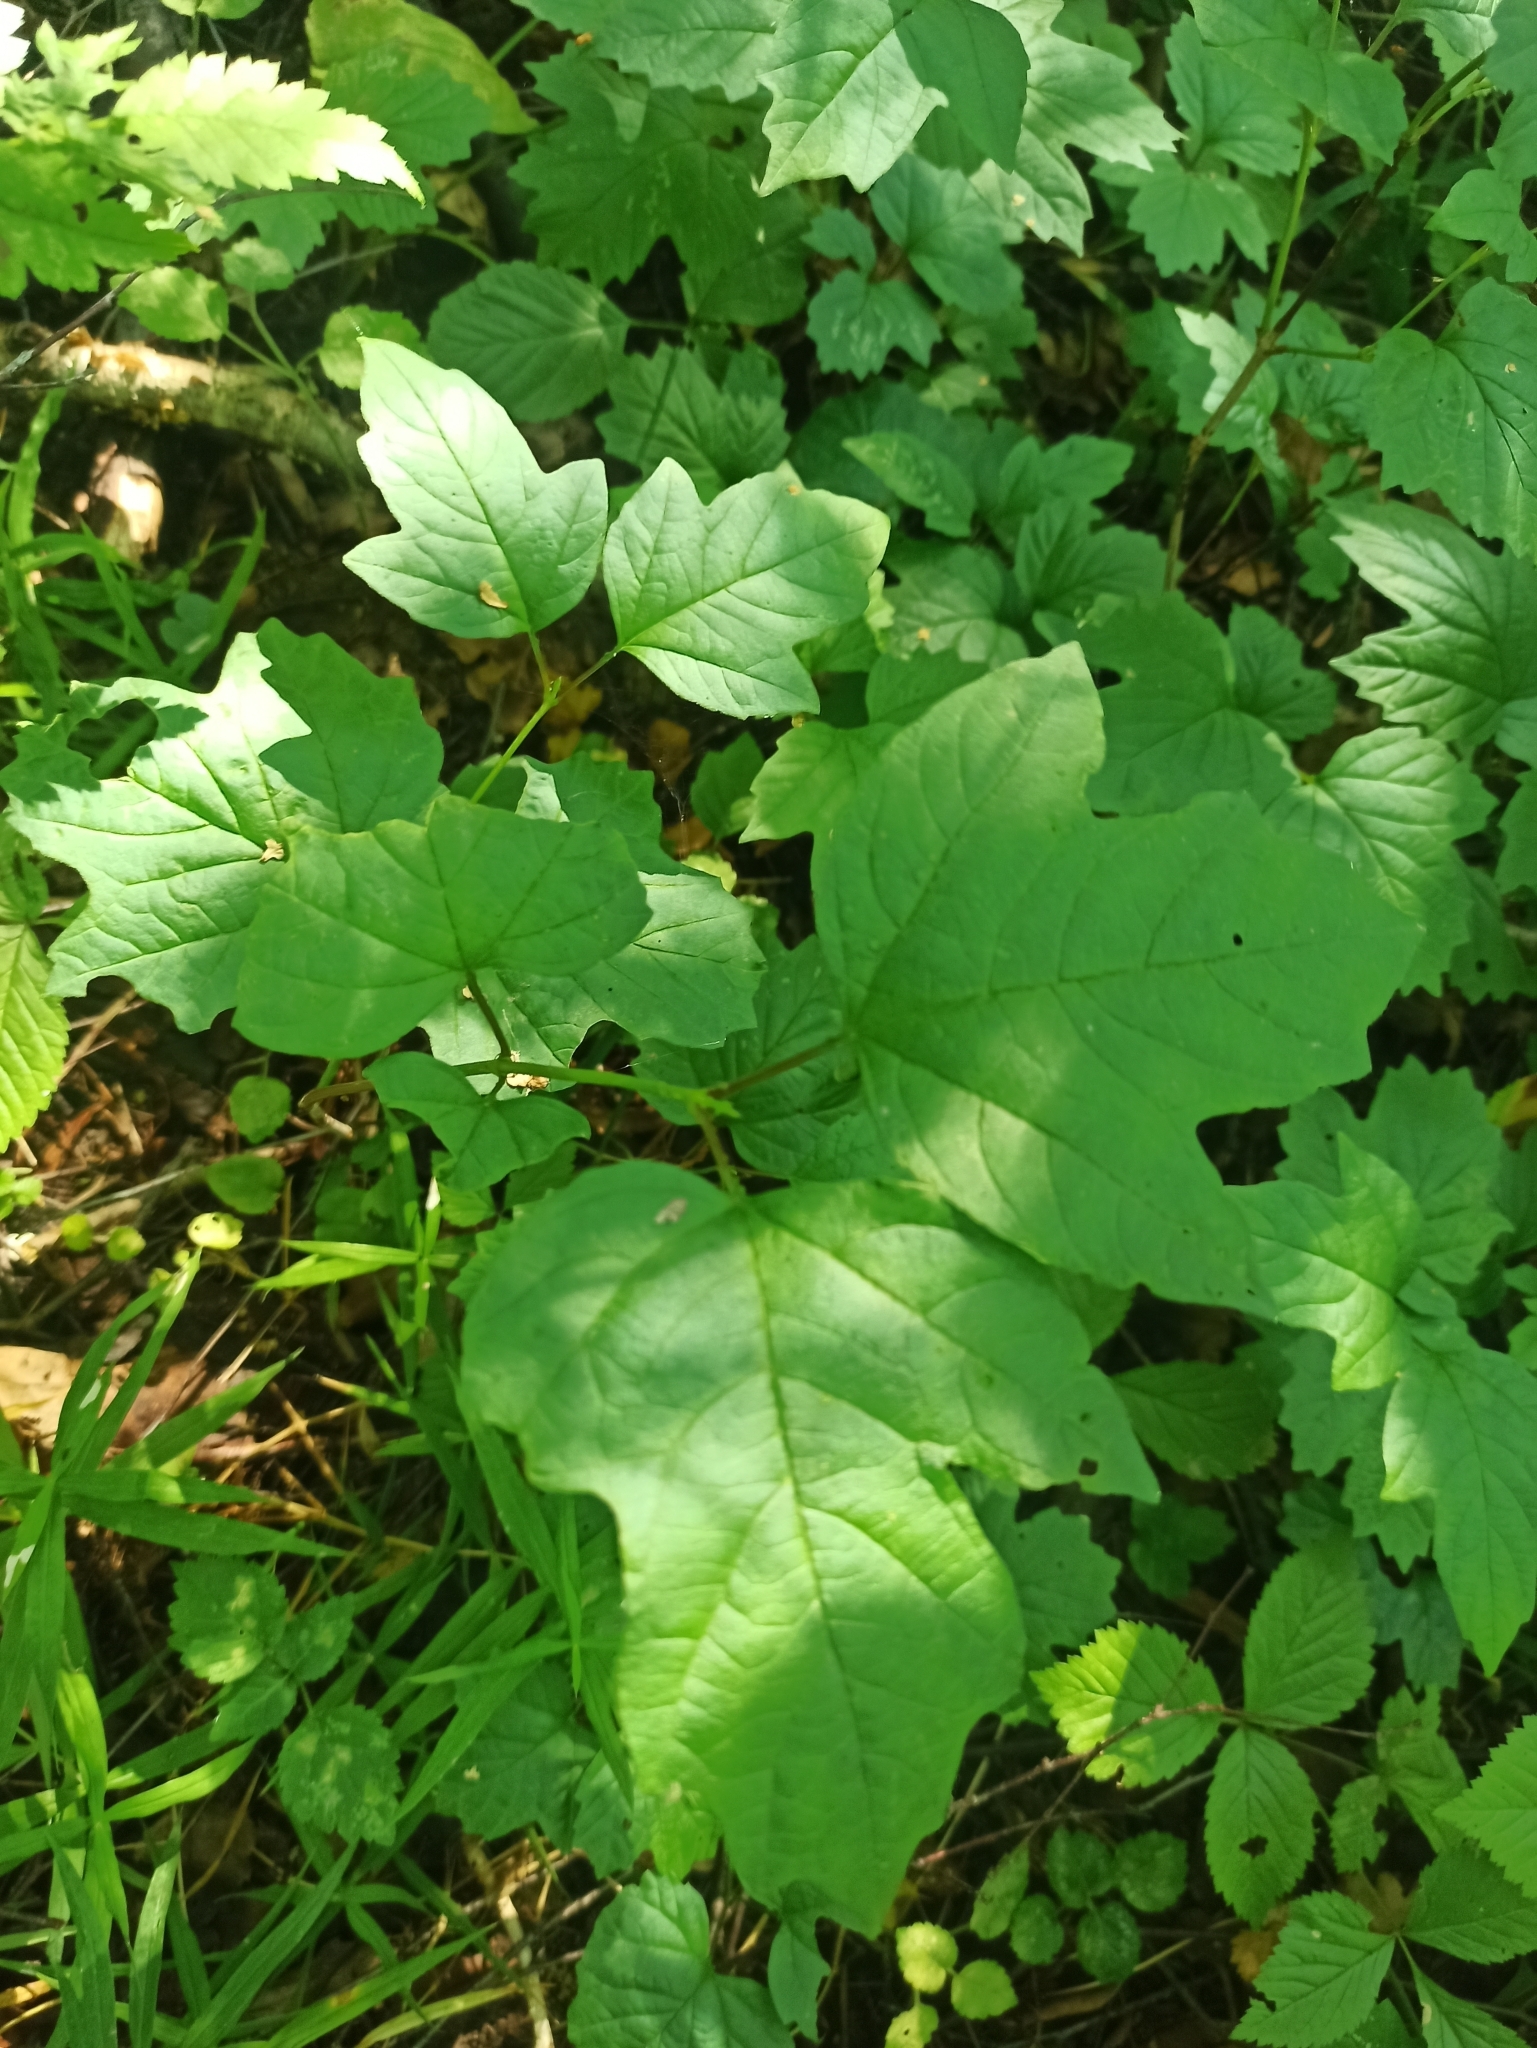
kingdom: Plantae
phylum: Tracheophyta
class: Magnoliopsida
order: Dipsacales
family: Viburnaceae
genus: Viburnum
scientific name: Viburnum opulus
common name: Guelder-rose
